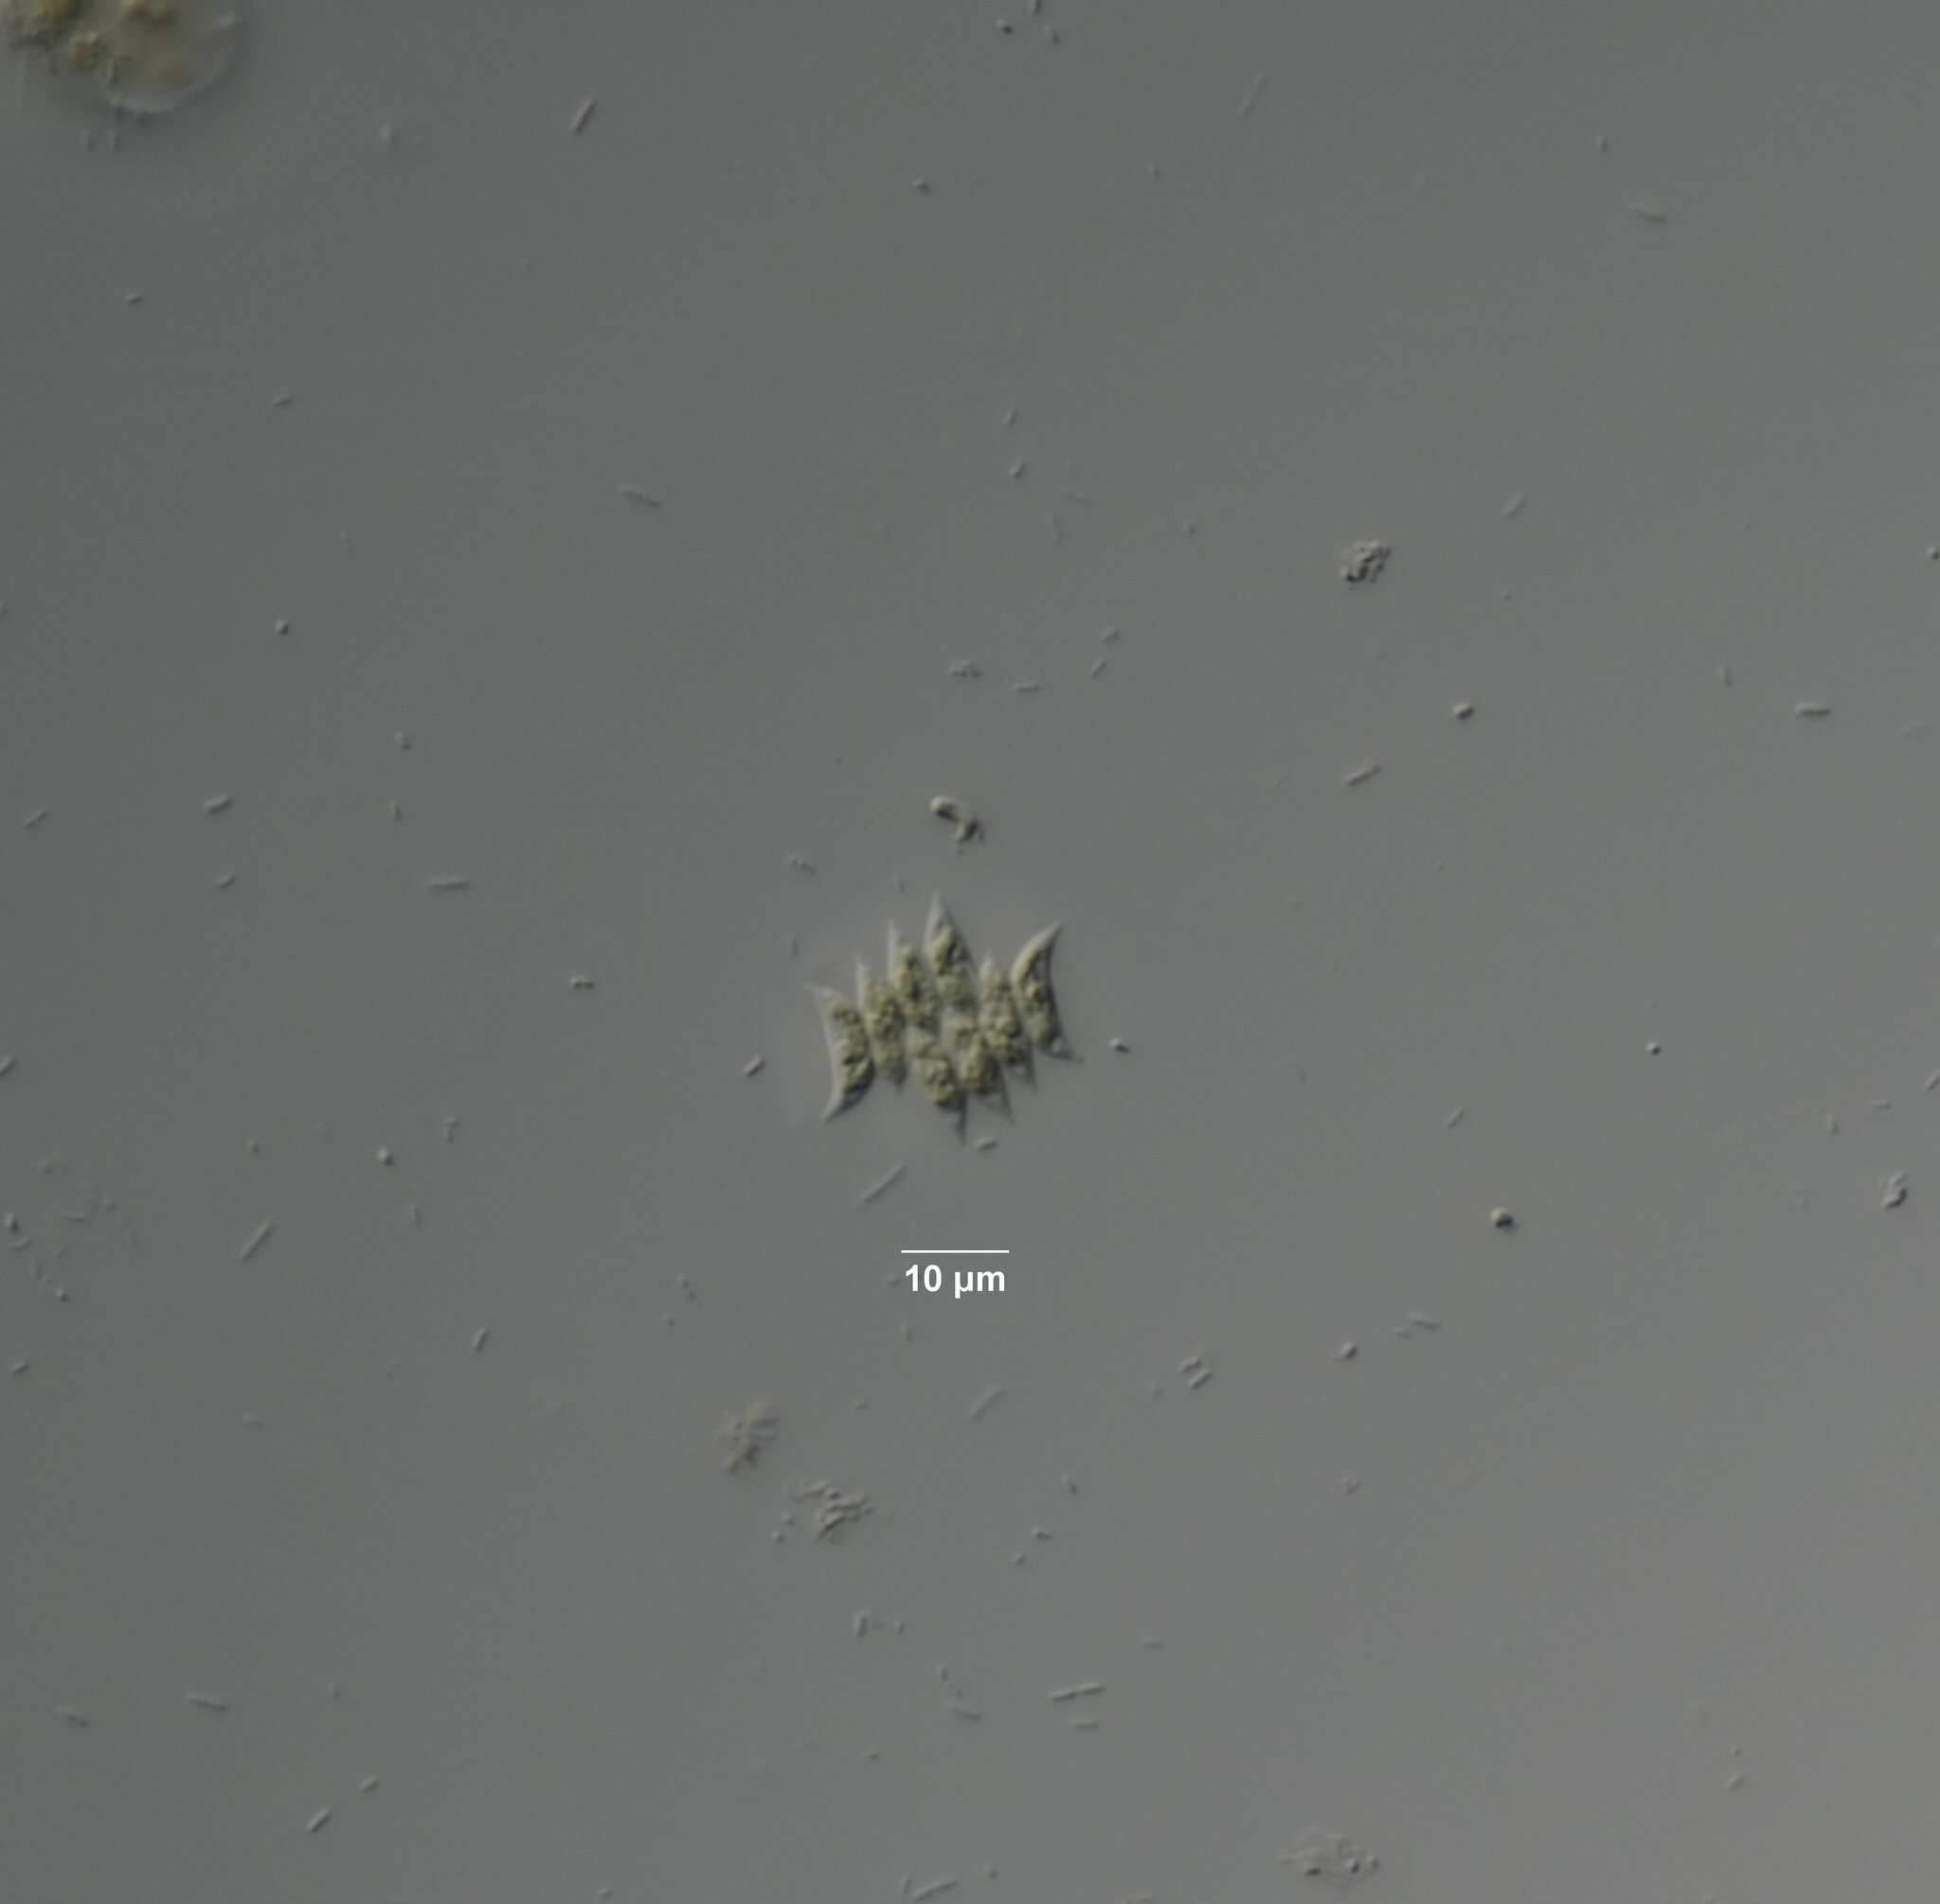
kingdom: Plantae
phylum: Chlorophyta
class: Chlorophyceae
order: Sphaeropleales
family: Scenedesmaceae
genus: Tetradesmus
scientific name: Tetradesmus obliquus
